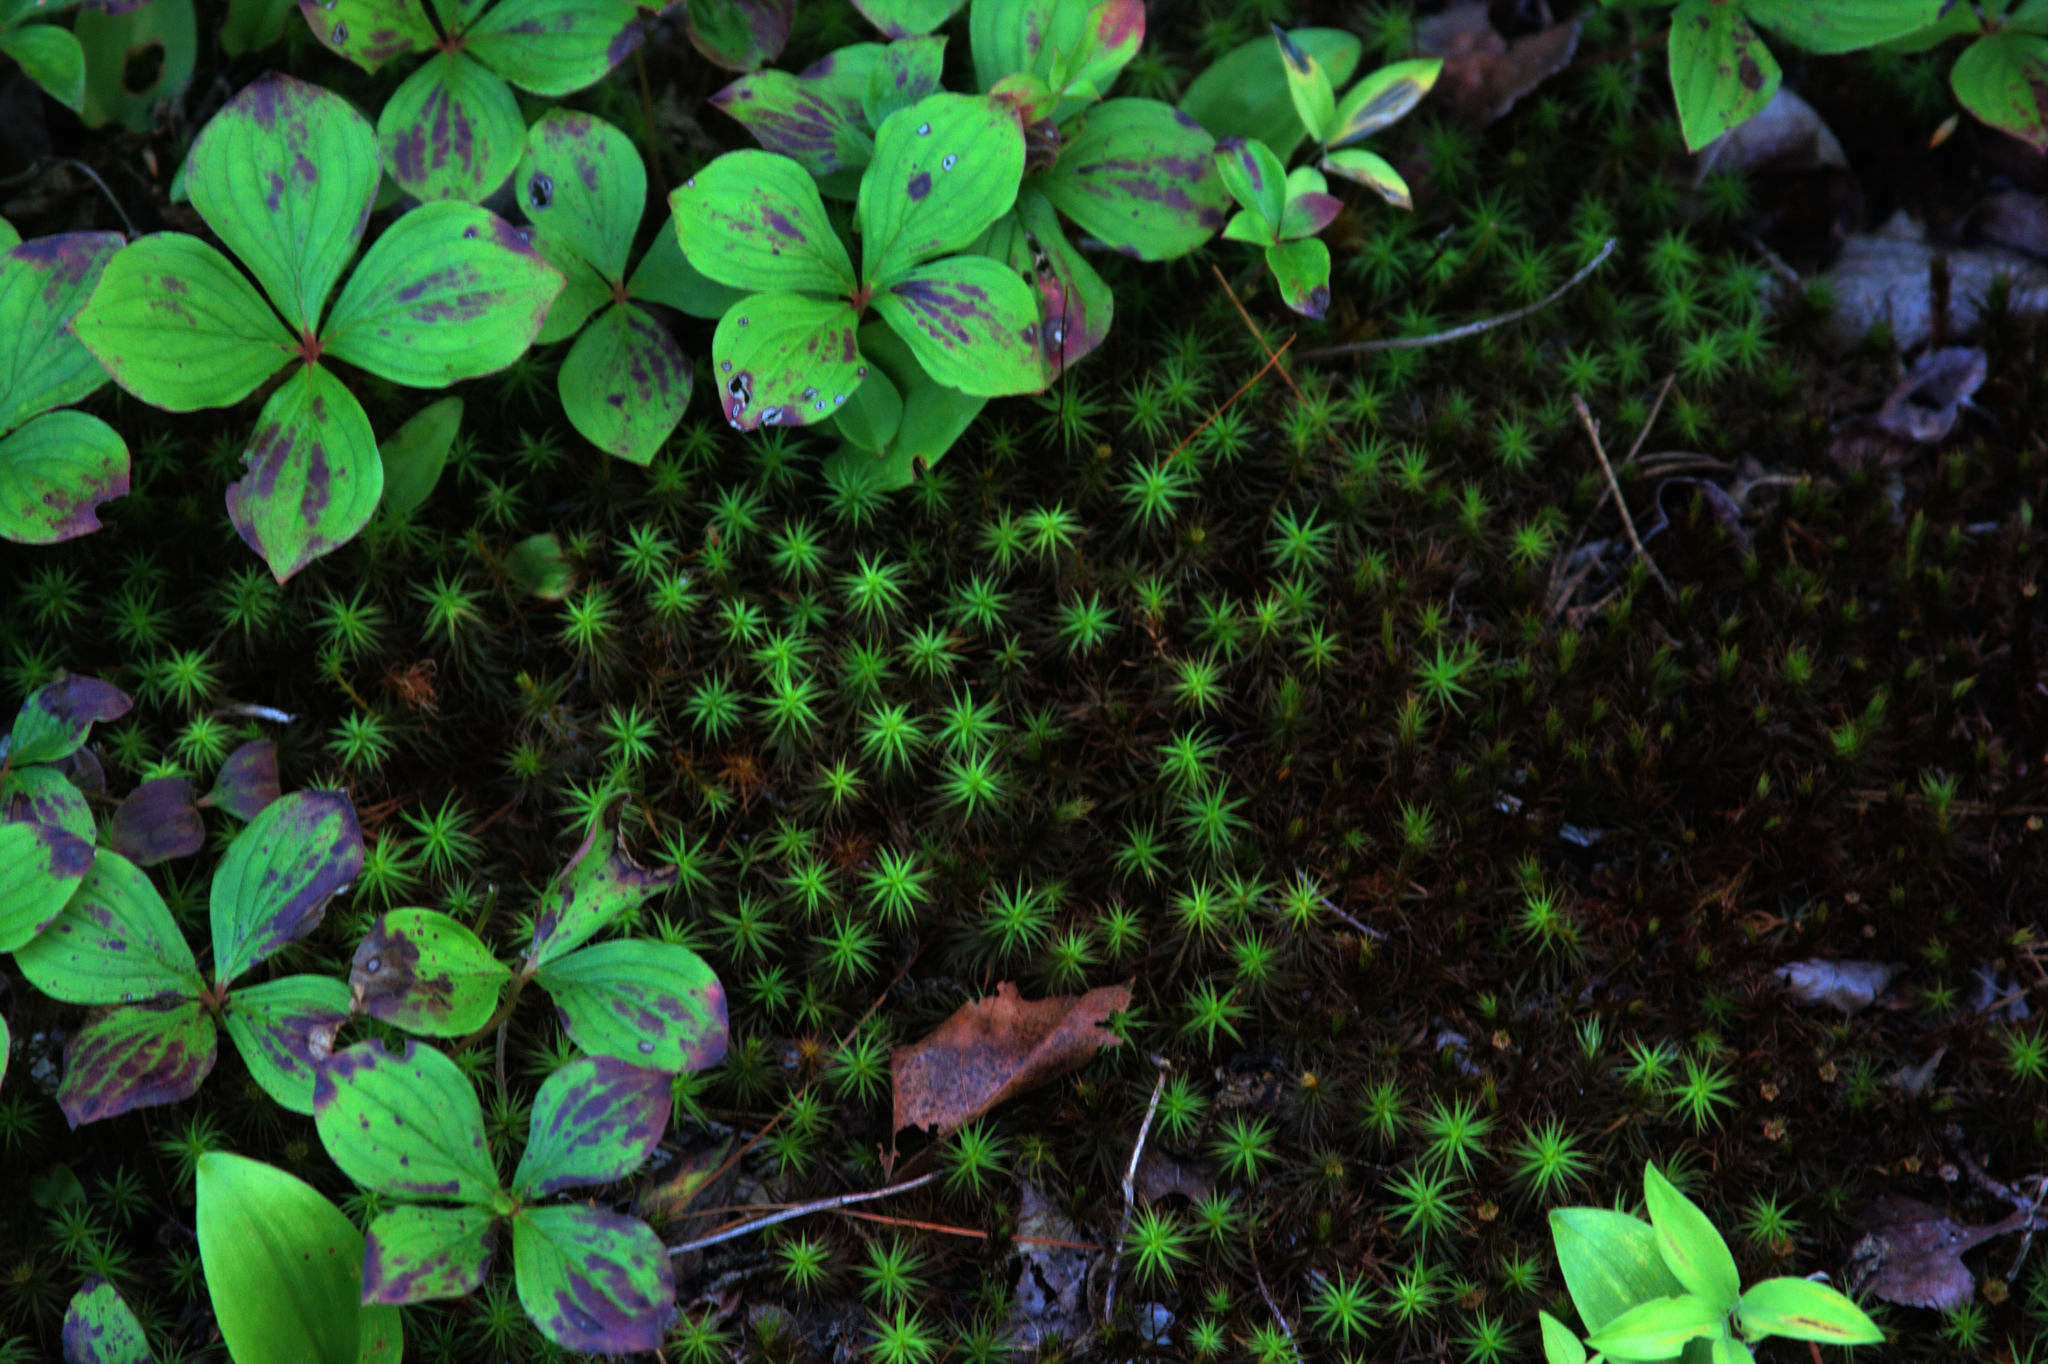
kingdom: Plantae
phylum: Tracheophyta
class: Magnoliopsida
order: Cornales
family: Cornaceae
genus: Cornus
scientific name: Cornus canadensis
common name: Creeping dogwood
